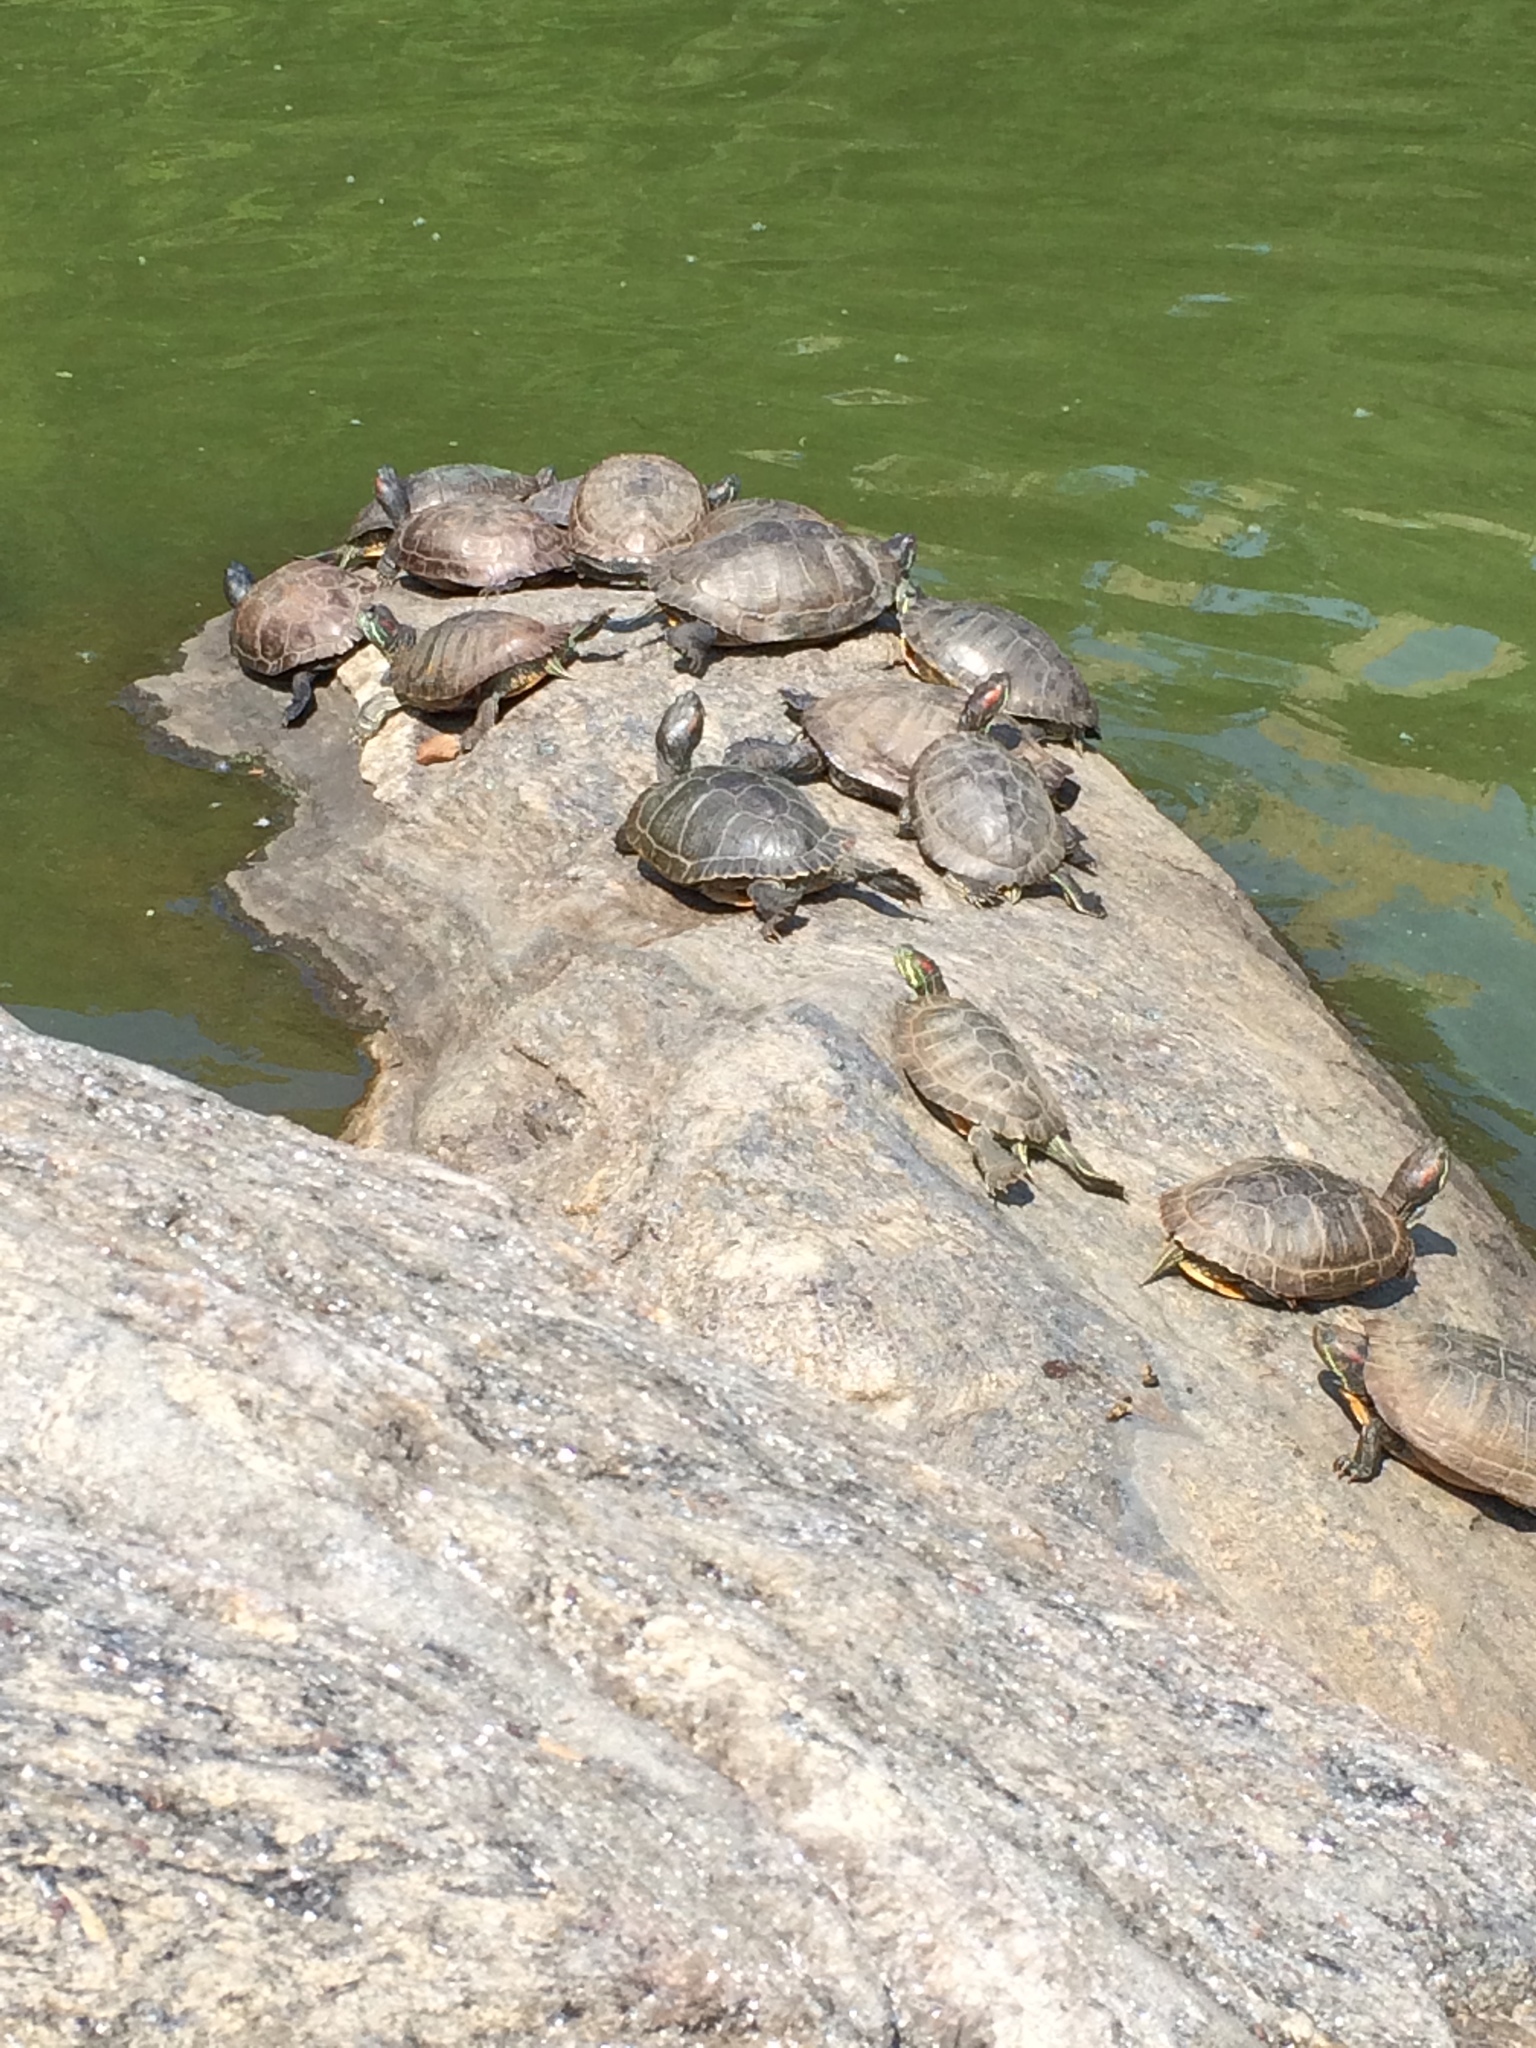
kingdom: Animalia
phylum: Chordata
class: Testudines
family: Emydidae
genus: Trachemys
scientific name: Trachemys scripta
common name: Slider
